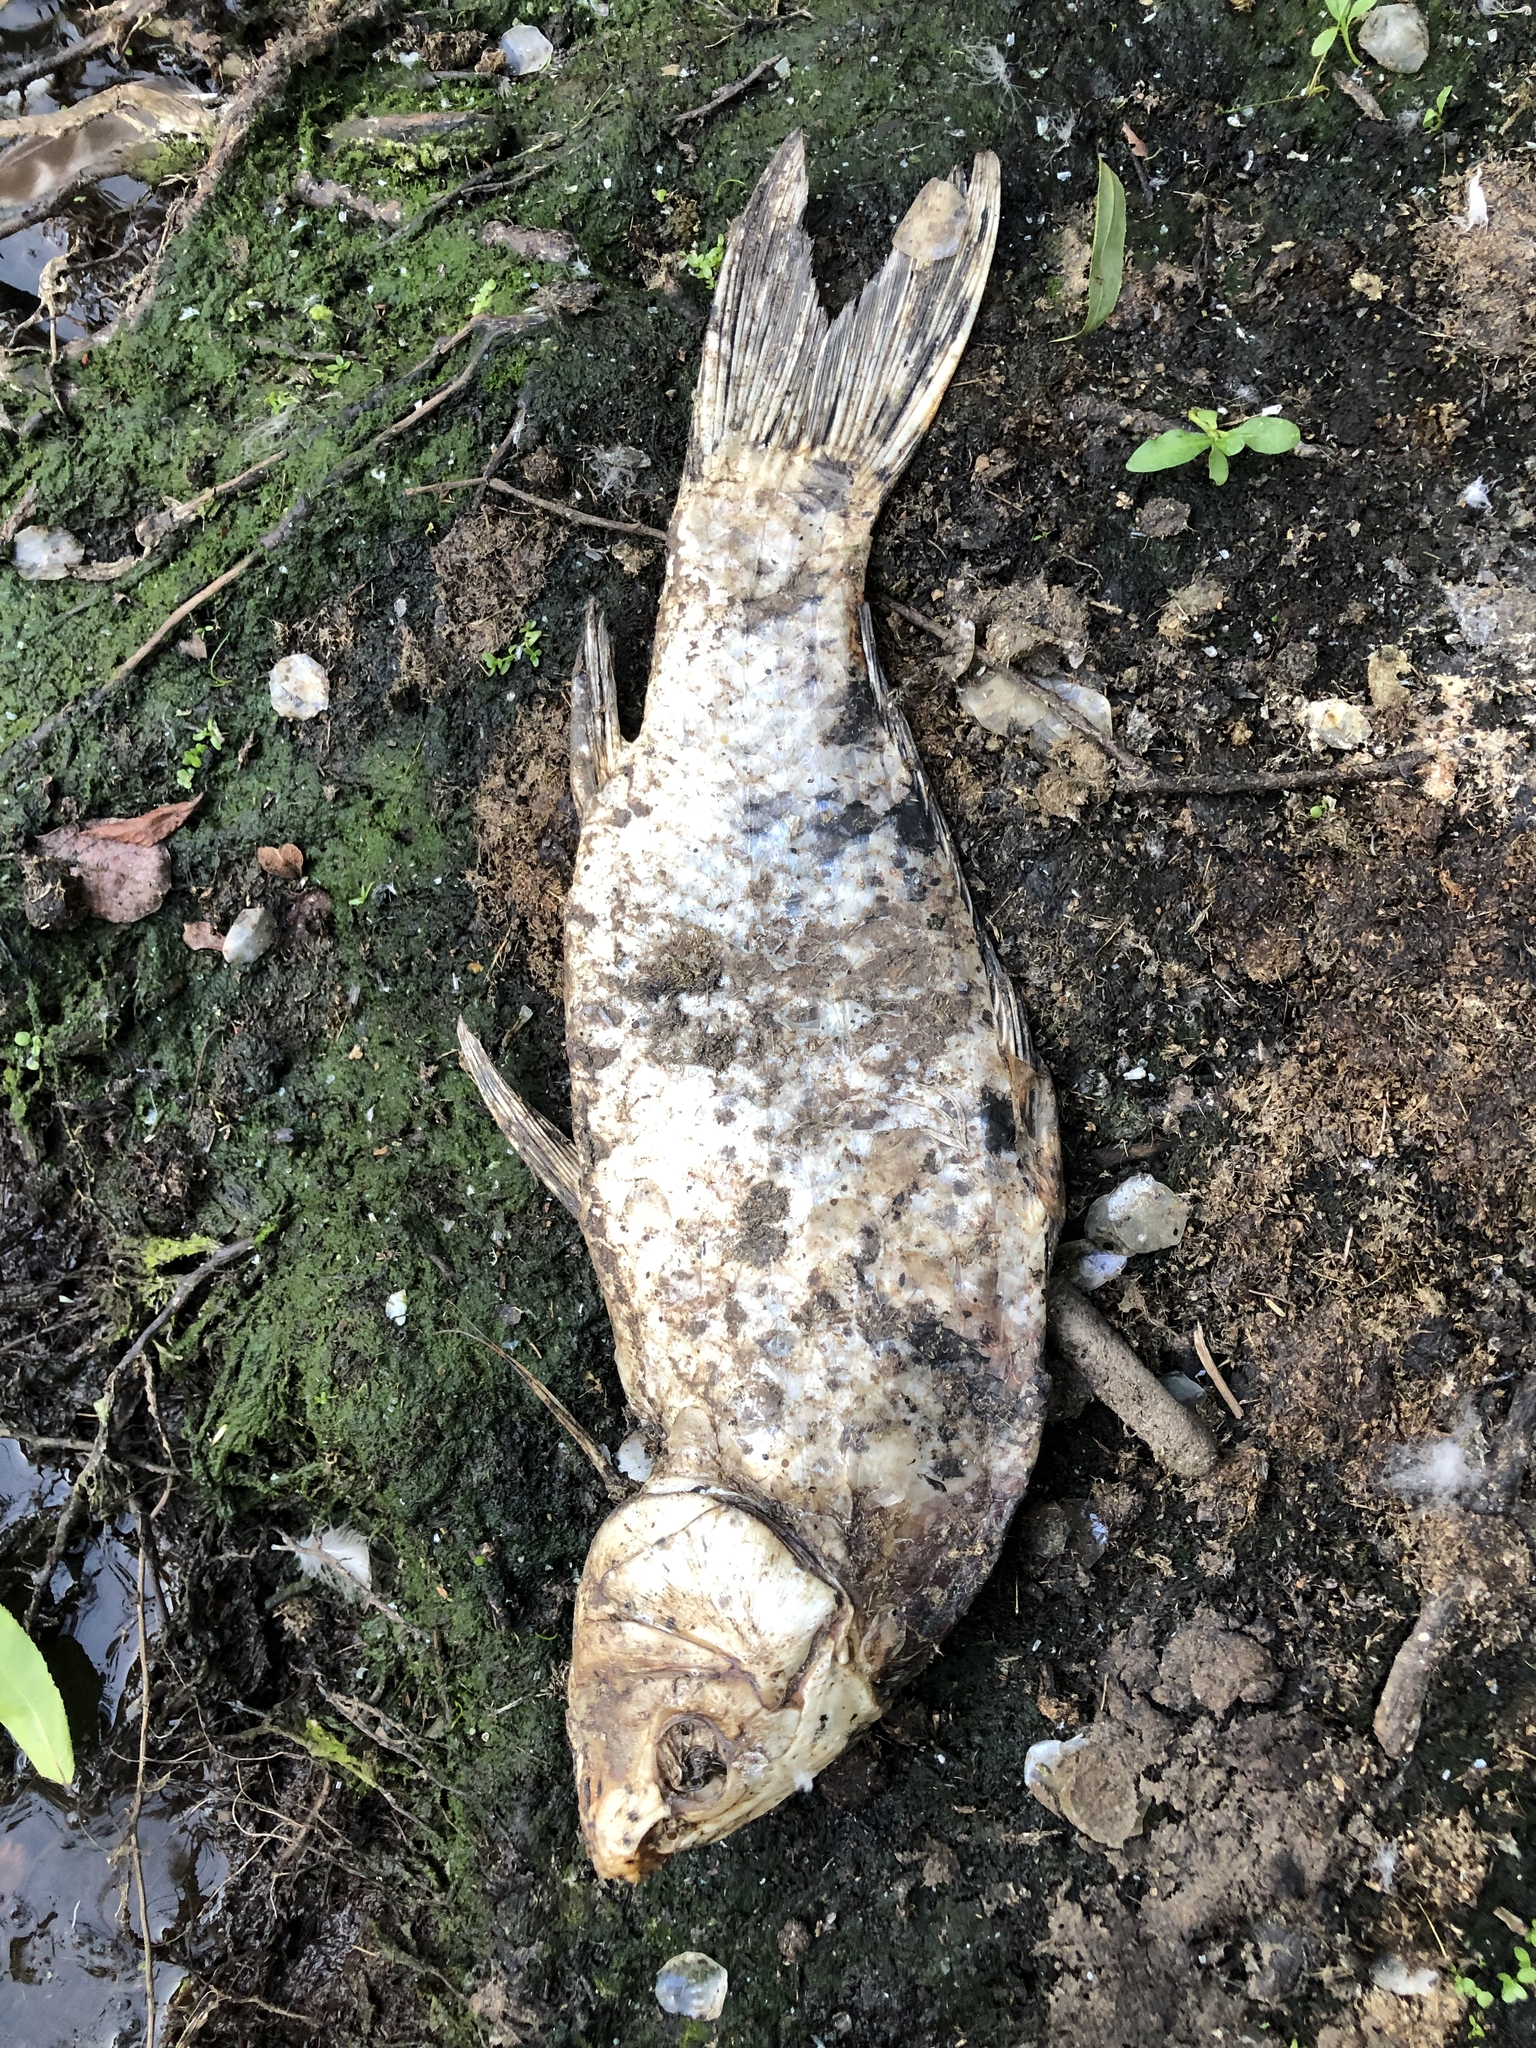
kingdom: Animalia
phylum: Chordata
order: Cypriniformes
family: Cyprinidae
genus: Cyprinus
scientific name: Cyprinus rubrofuscus
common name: Koi
